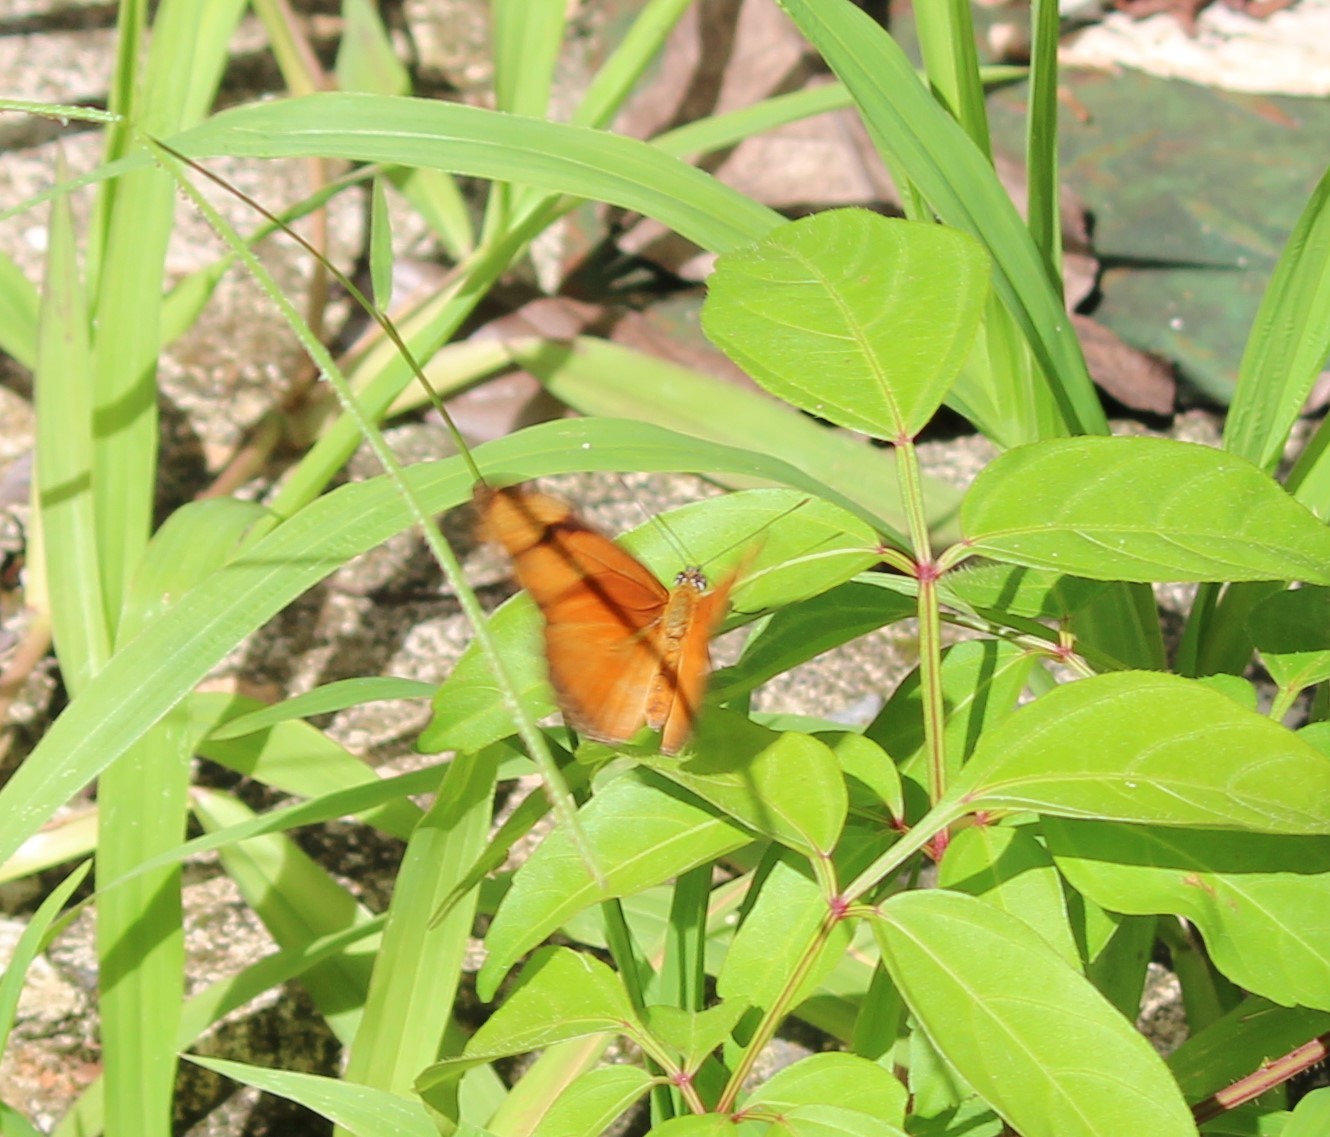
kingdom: Animalia
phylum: Arthropoda
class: Insecta
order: Lepidoptera
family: Nymphalidae
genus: Dryas
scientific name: Dryas iulia
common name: Flambeau
